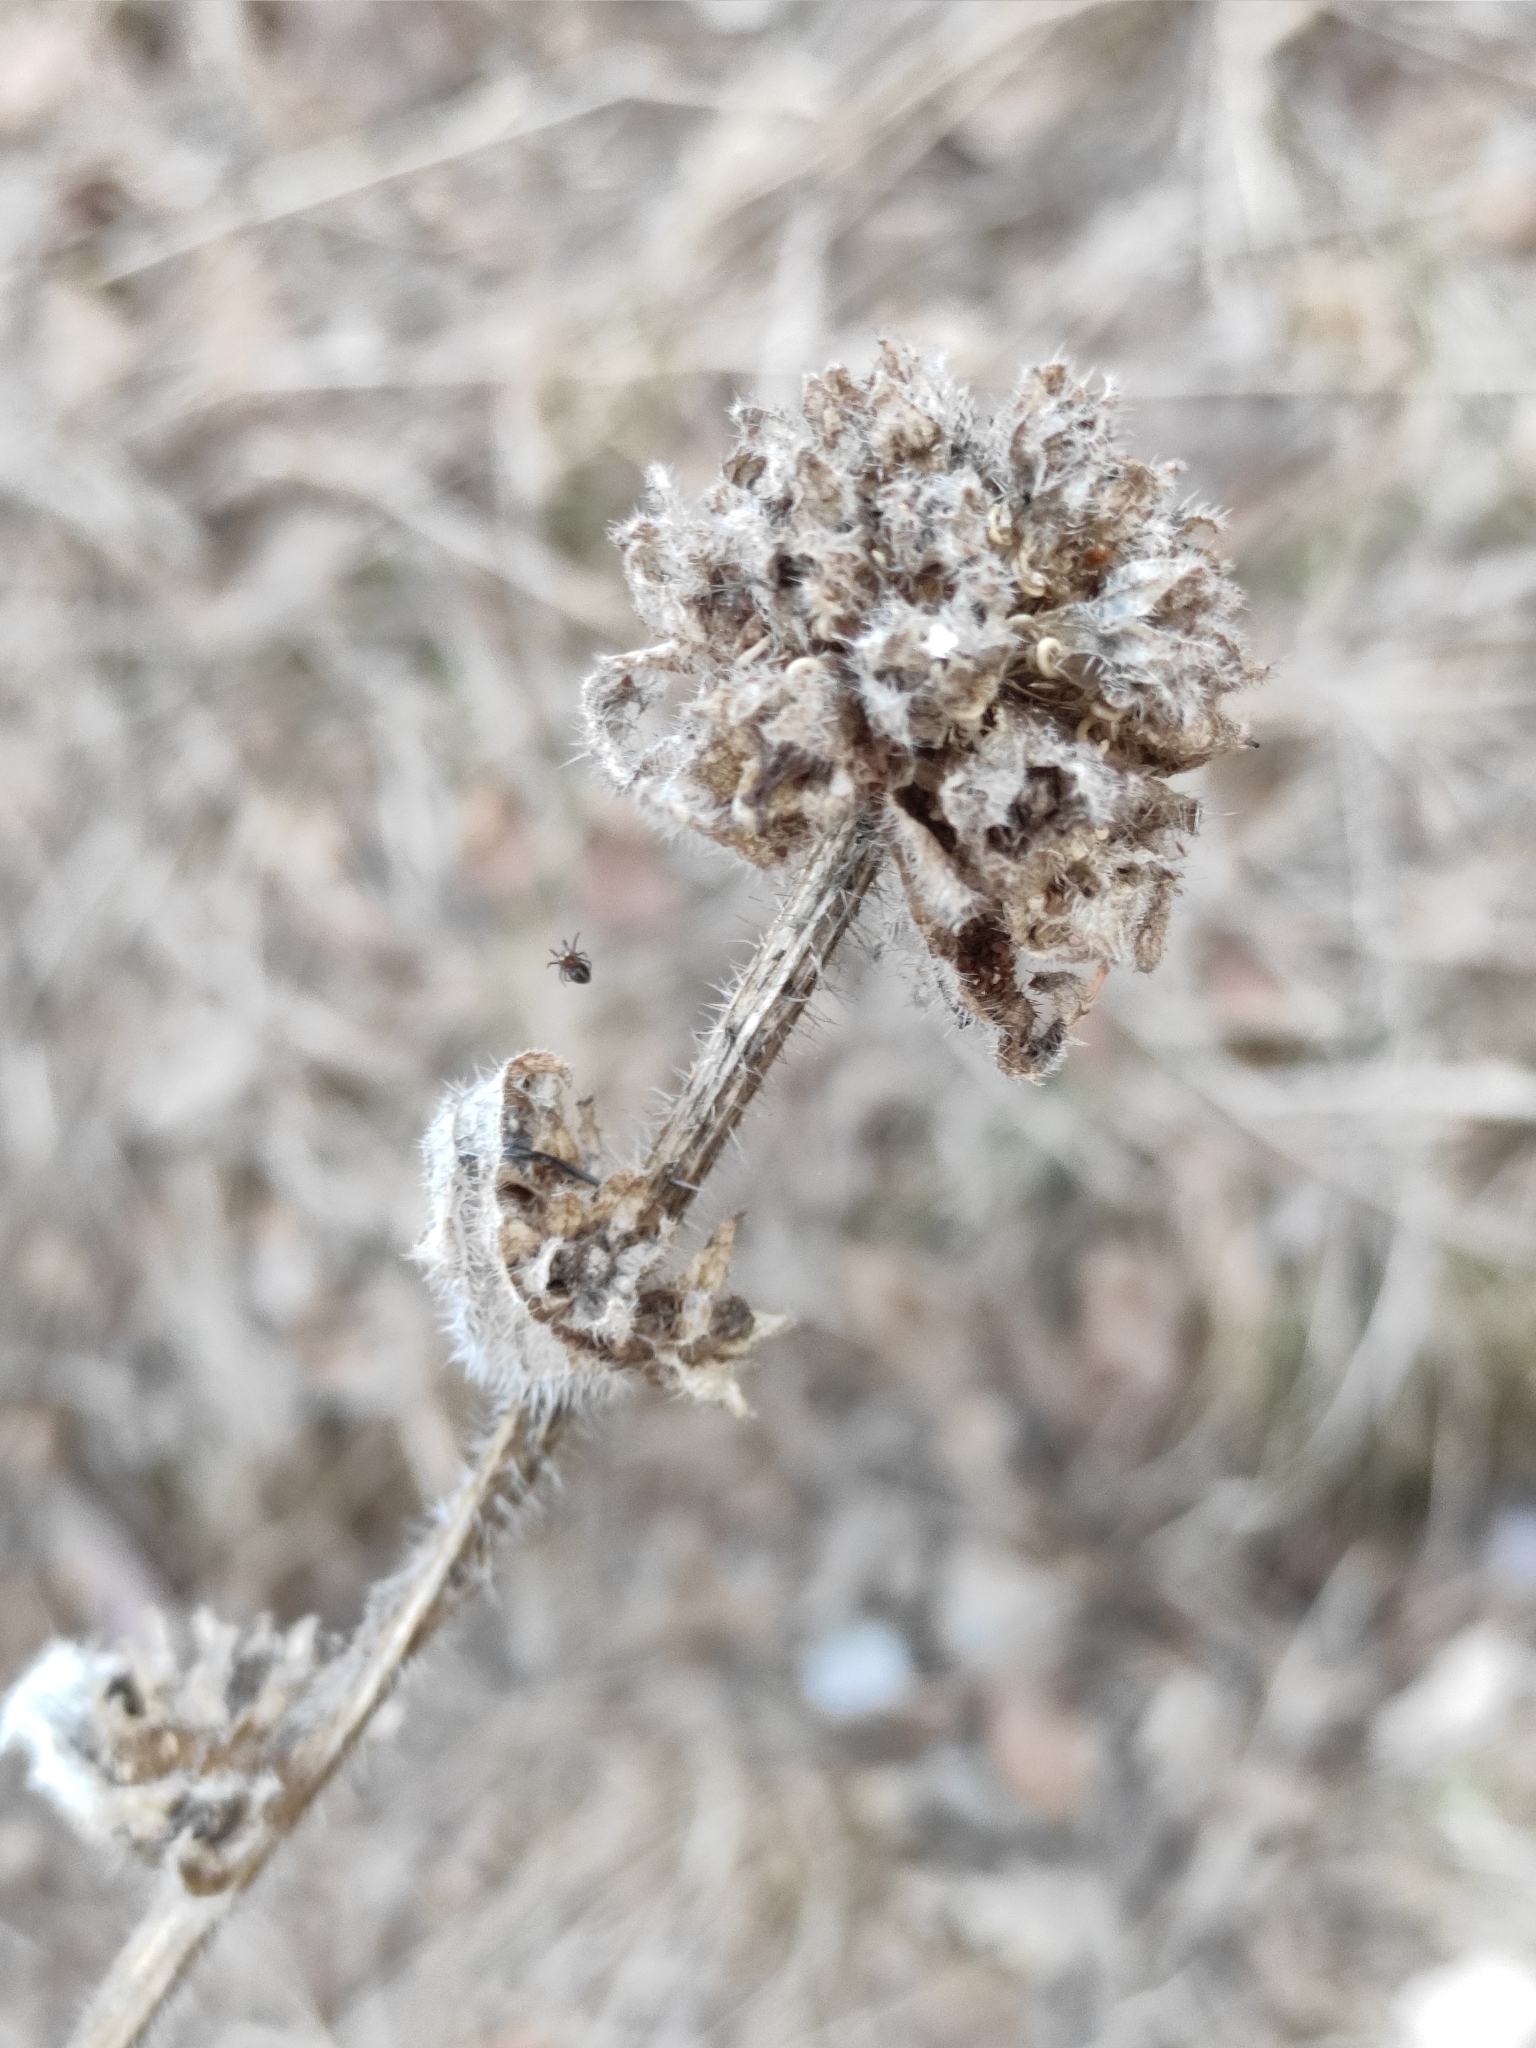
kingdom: Plantae
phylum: Tracheophyta
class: Magnoliopsida
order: Asterales
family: Campanulaceae
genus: Campanula
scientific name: Campanula cervicaria
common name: Bristly bellflower
